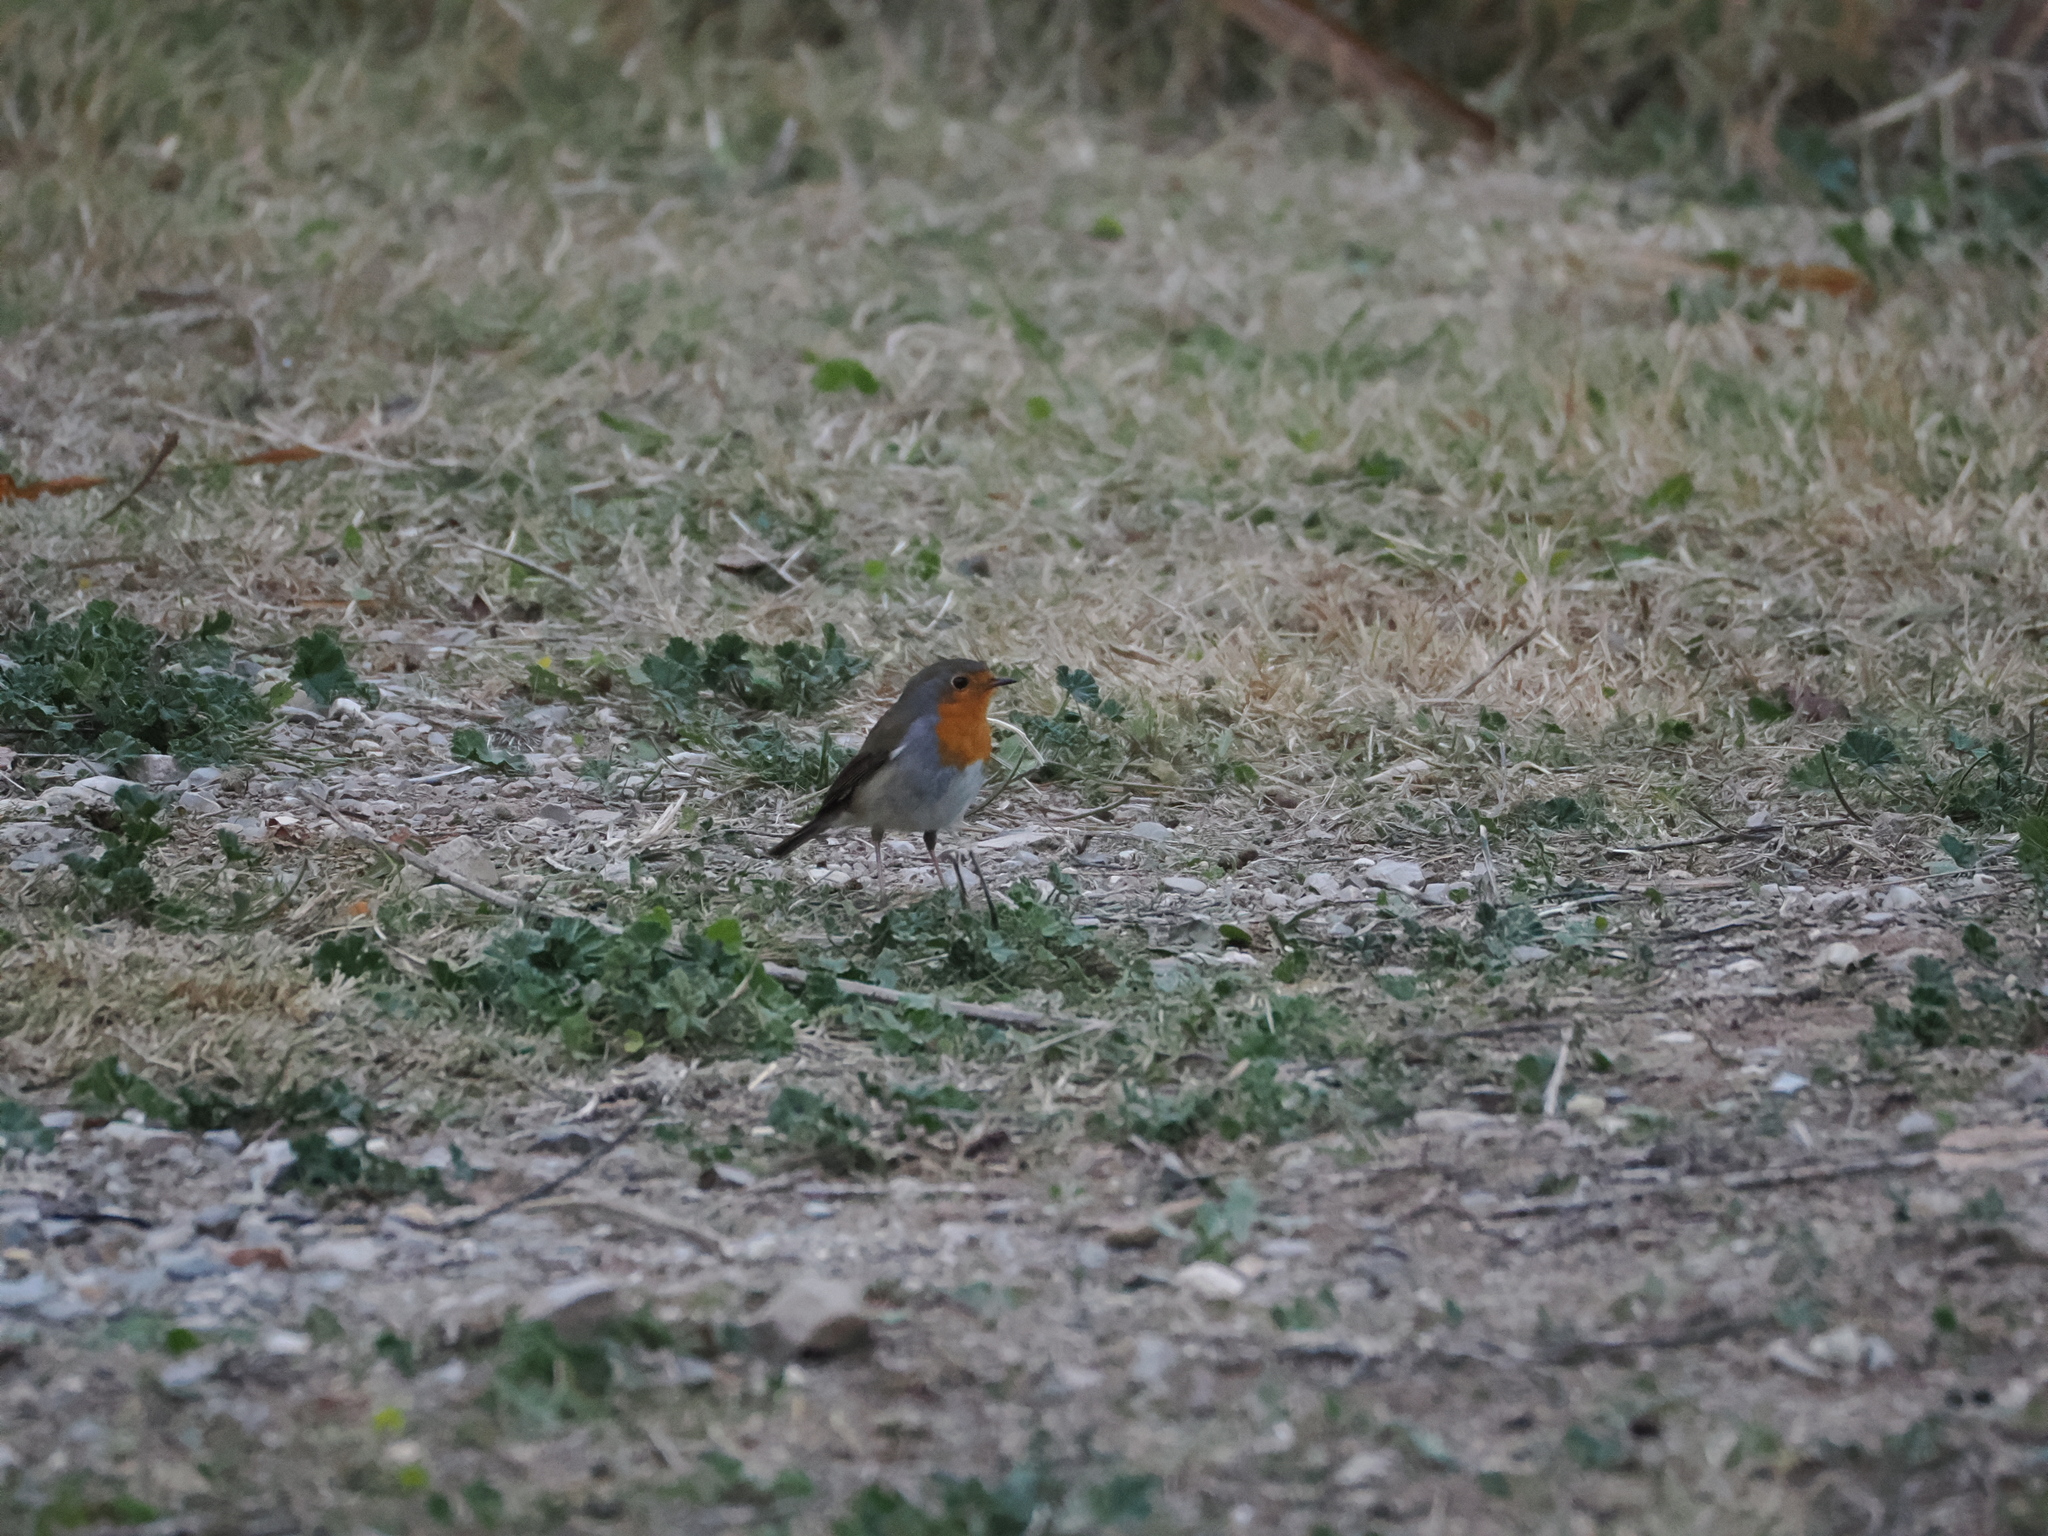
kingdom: Animalia
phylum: Chordata
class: Aves
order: Passeriformes
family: Muscicapidae
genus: Erithacus
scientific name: Erithacus rubecula
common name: European robin
